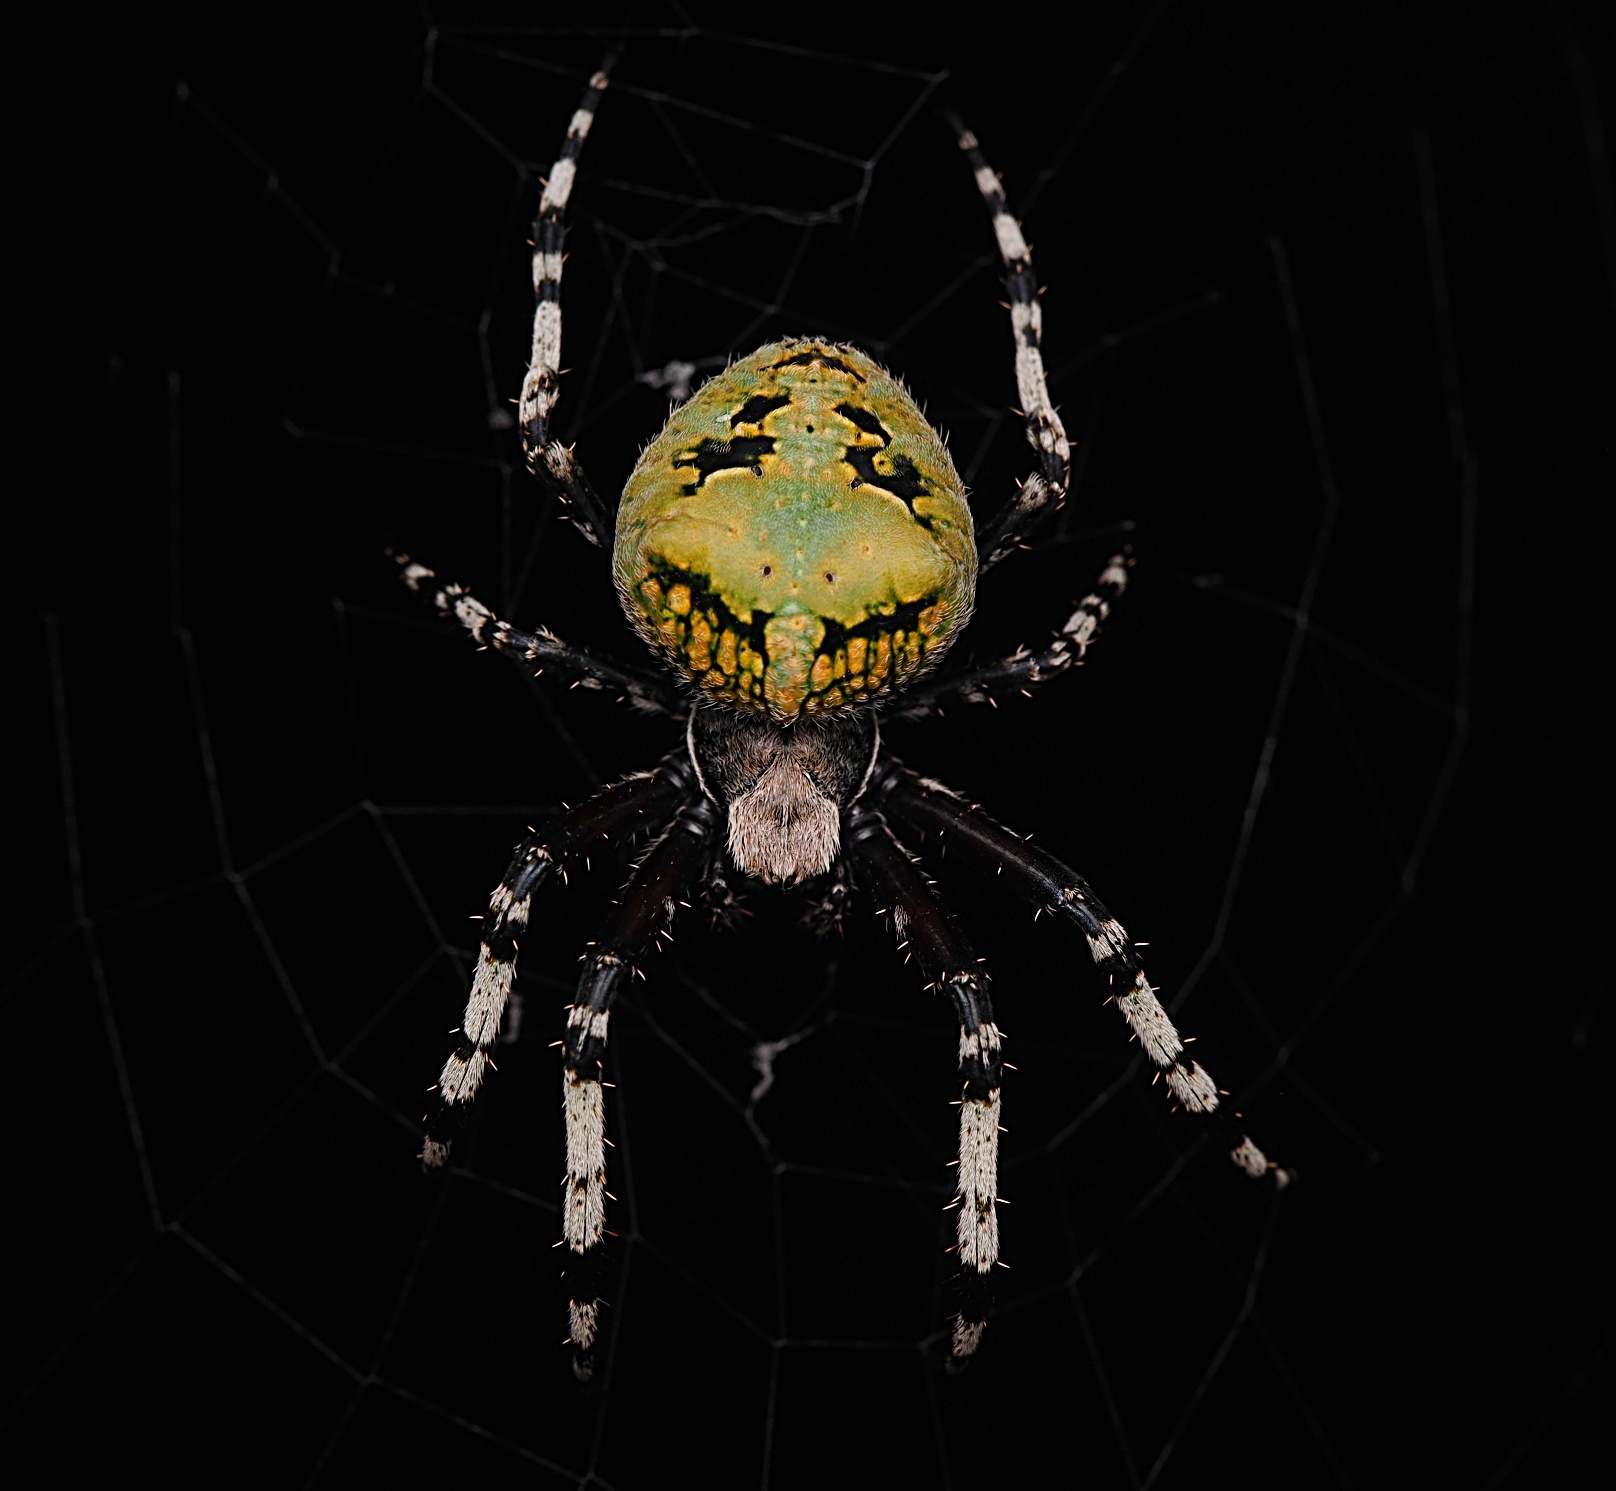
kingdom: Animalia
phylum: Arthropoda
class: Arachnida
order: Araneae
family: Araneidae
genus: Courtaraneus
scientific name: Courtaraneus orientalis
